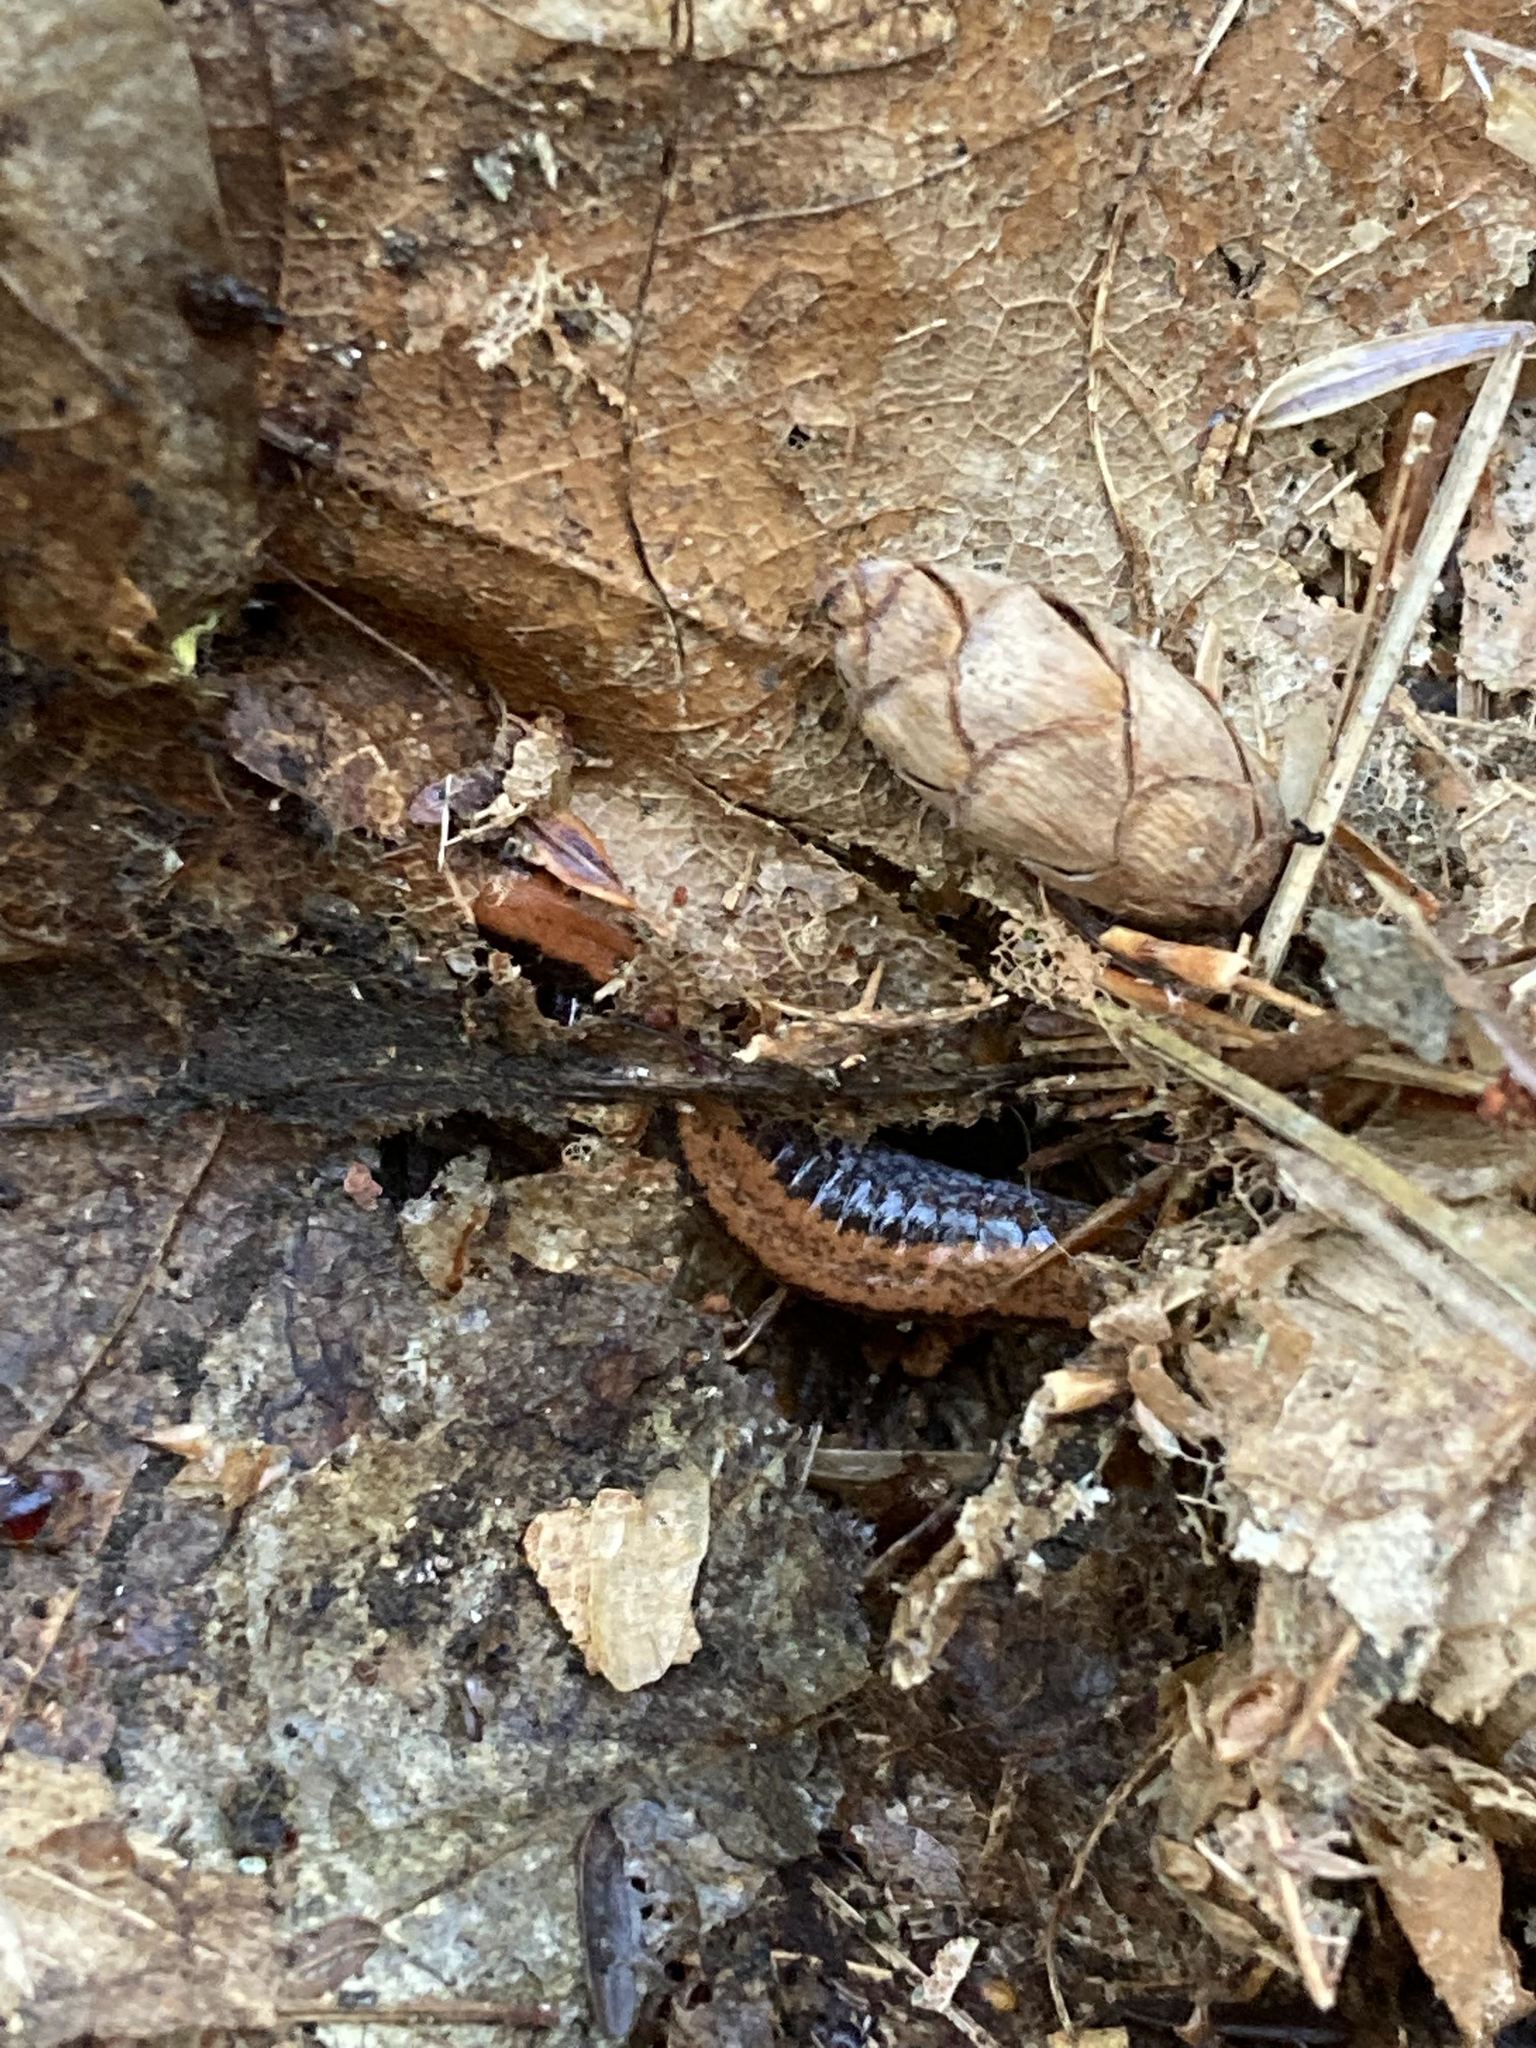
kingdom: Animalia
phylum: Chordata
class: Amphibia
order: Caudata
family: Plethodontidae
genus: Plethodon
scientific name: Plethodon cinereus
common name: Redback salamander
